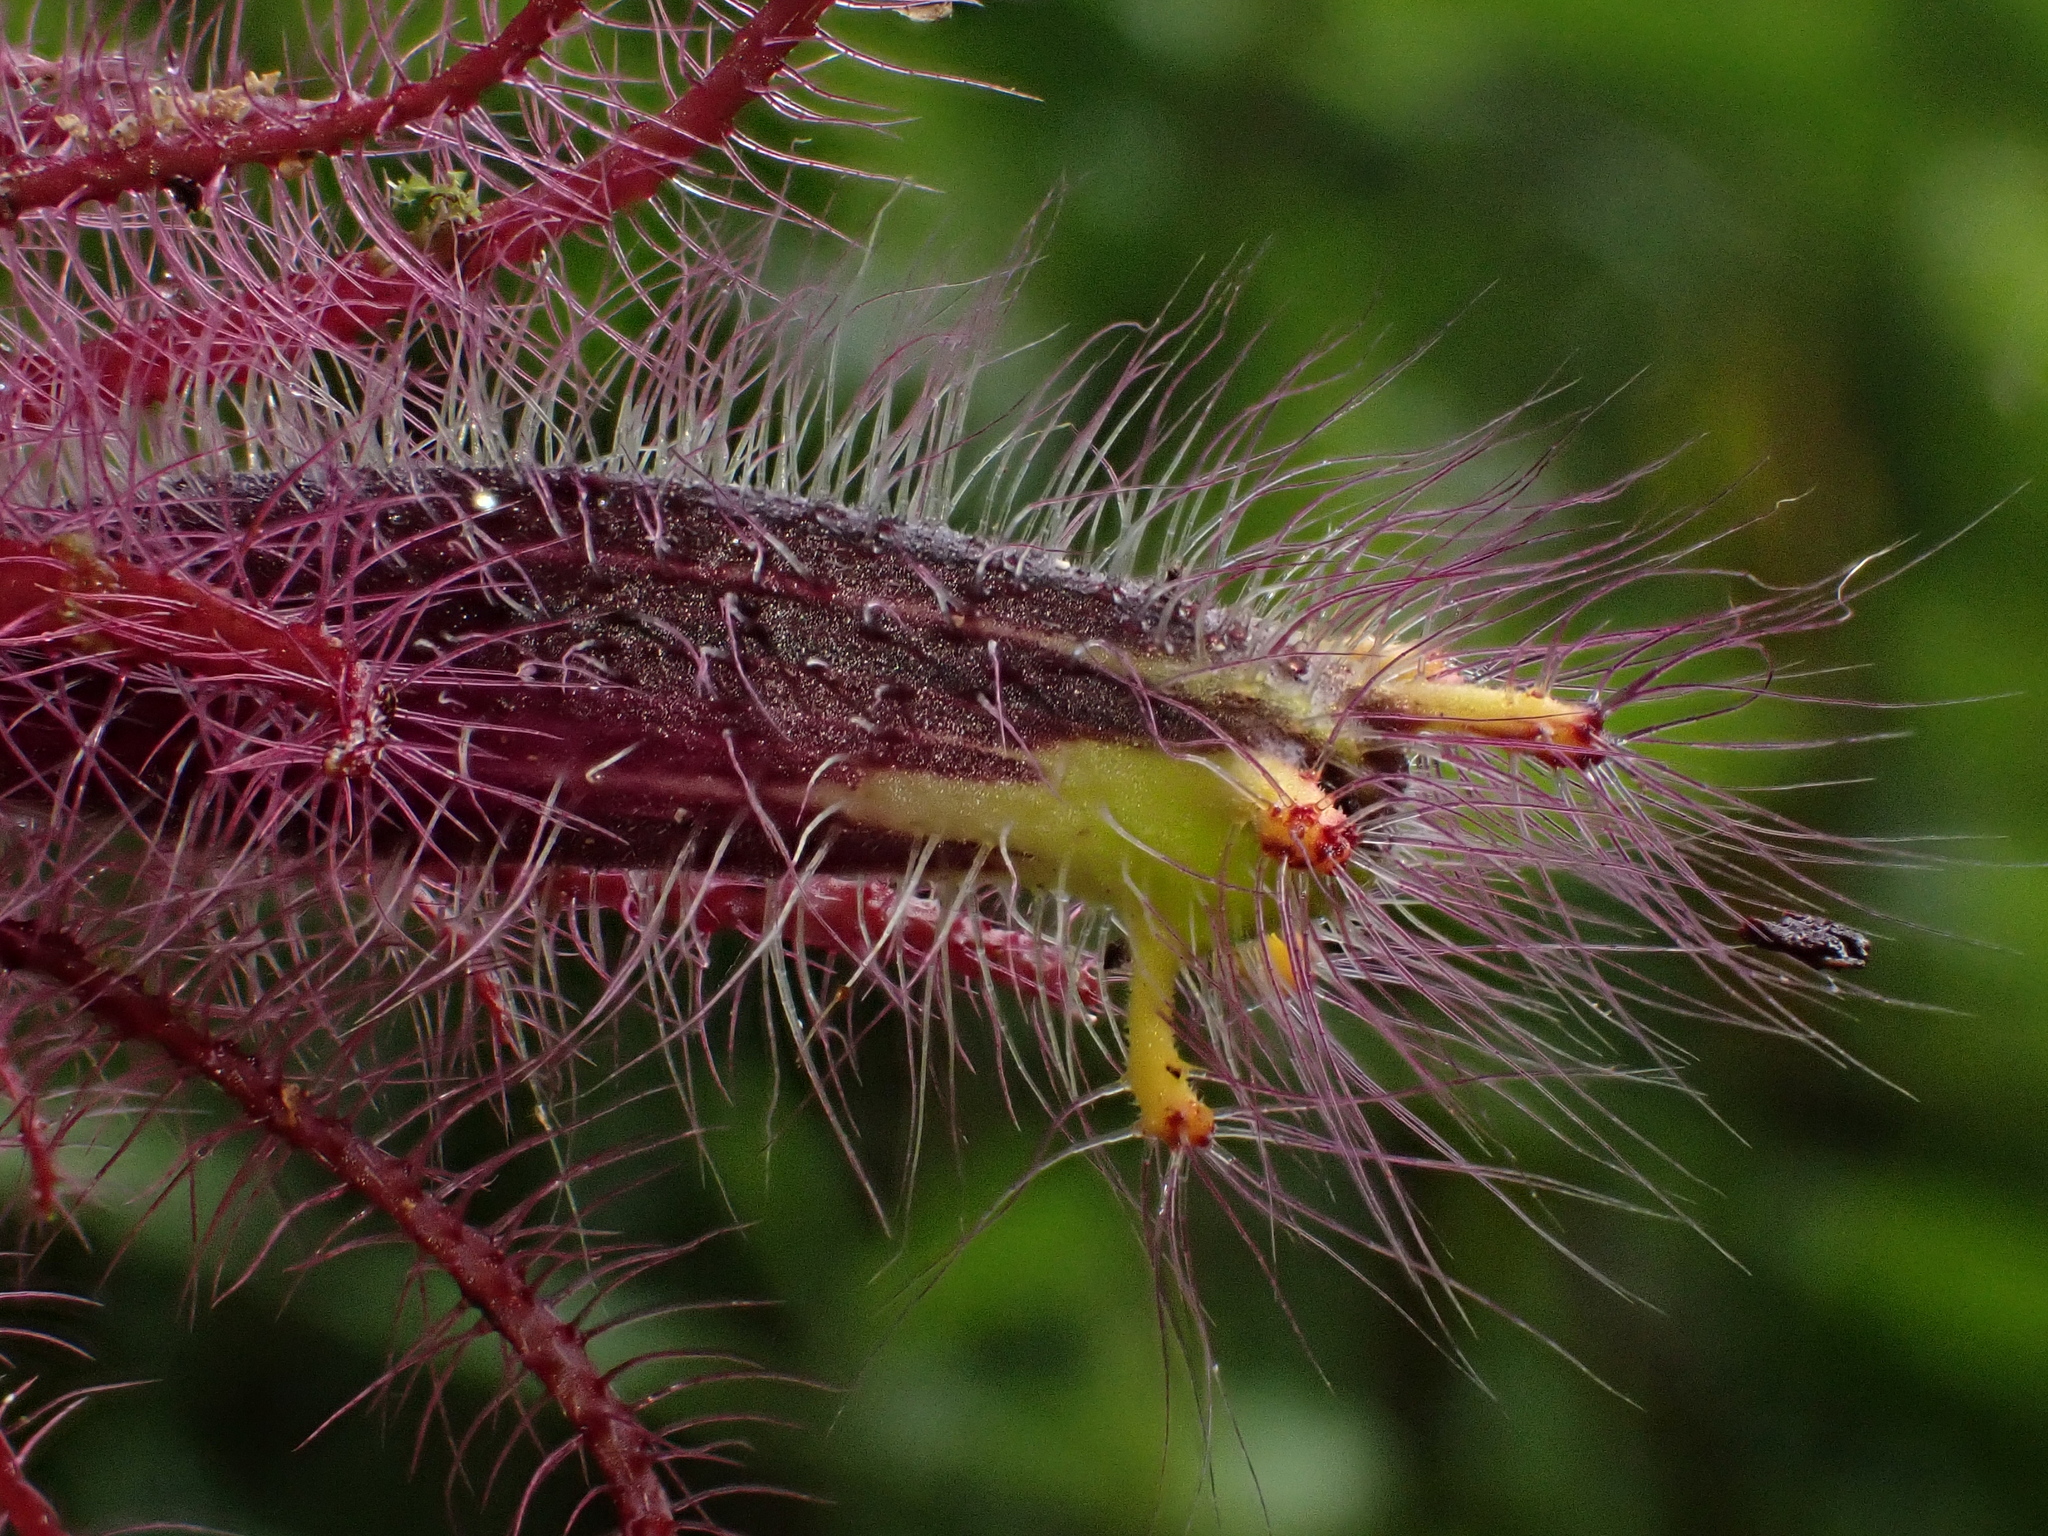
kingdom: Plantae
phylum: Tracheophyta
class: Magnoliopsida
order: Lamiales
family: Gesneriaceae
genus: Columnea
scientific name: Columnea minor
